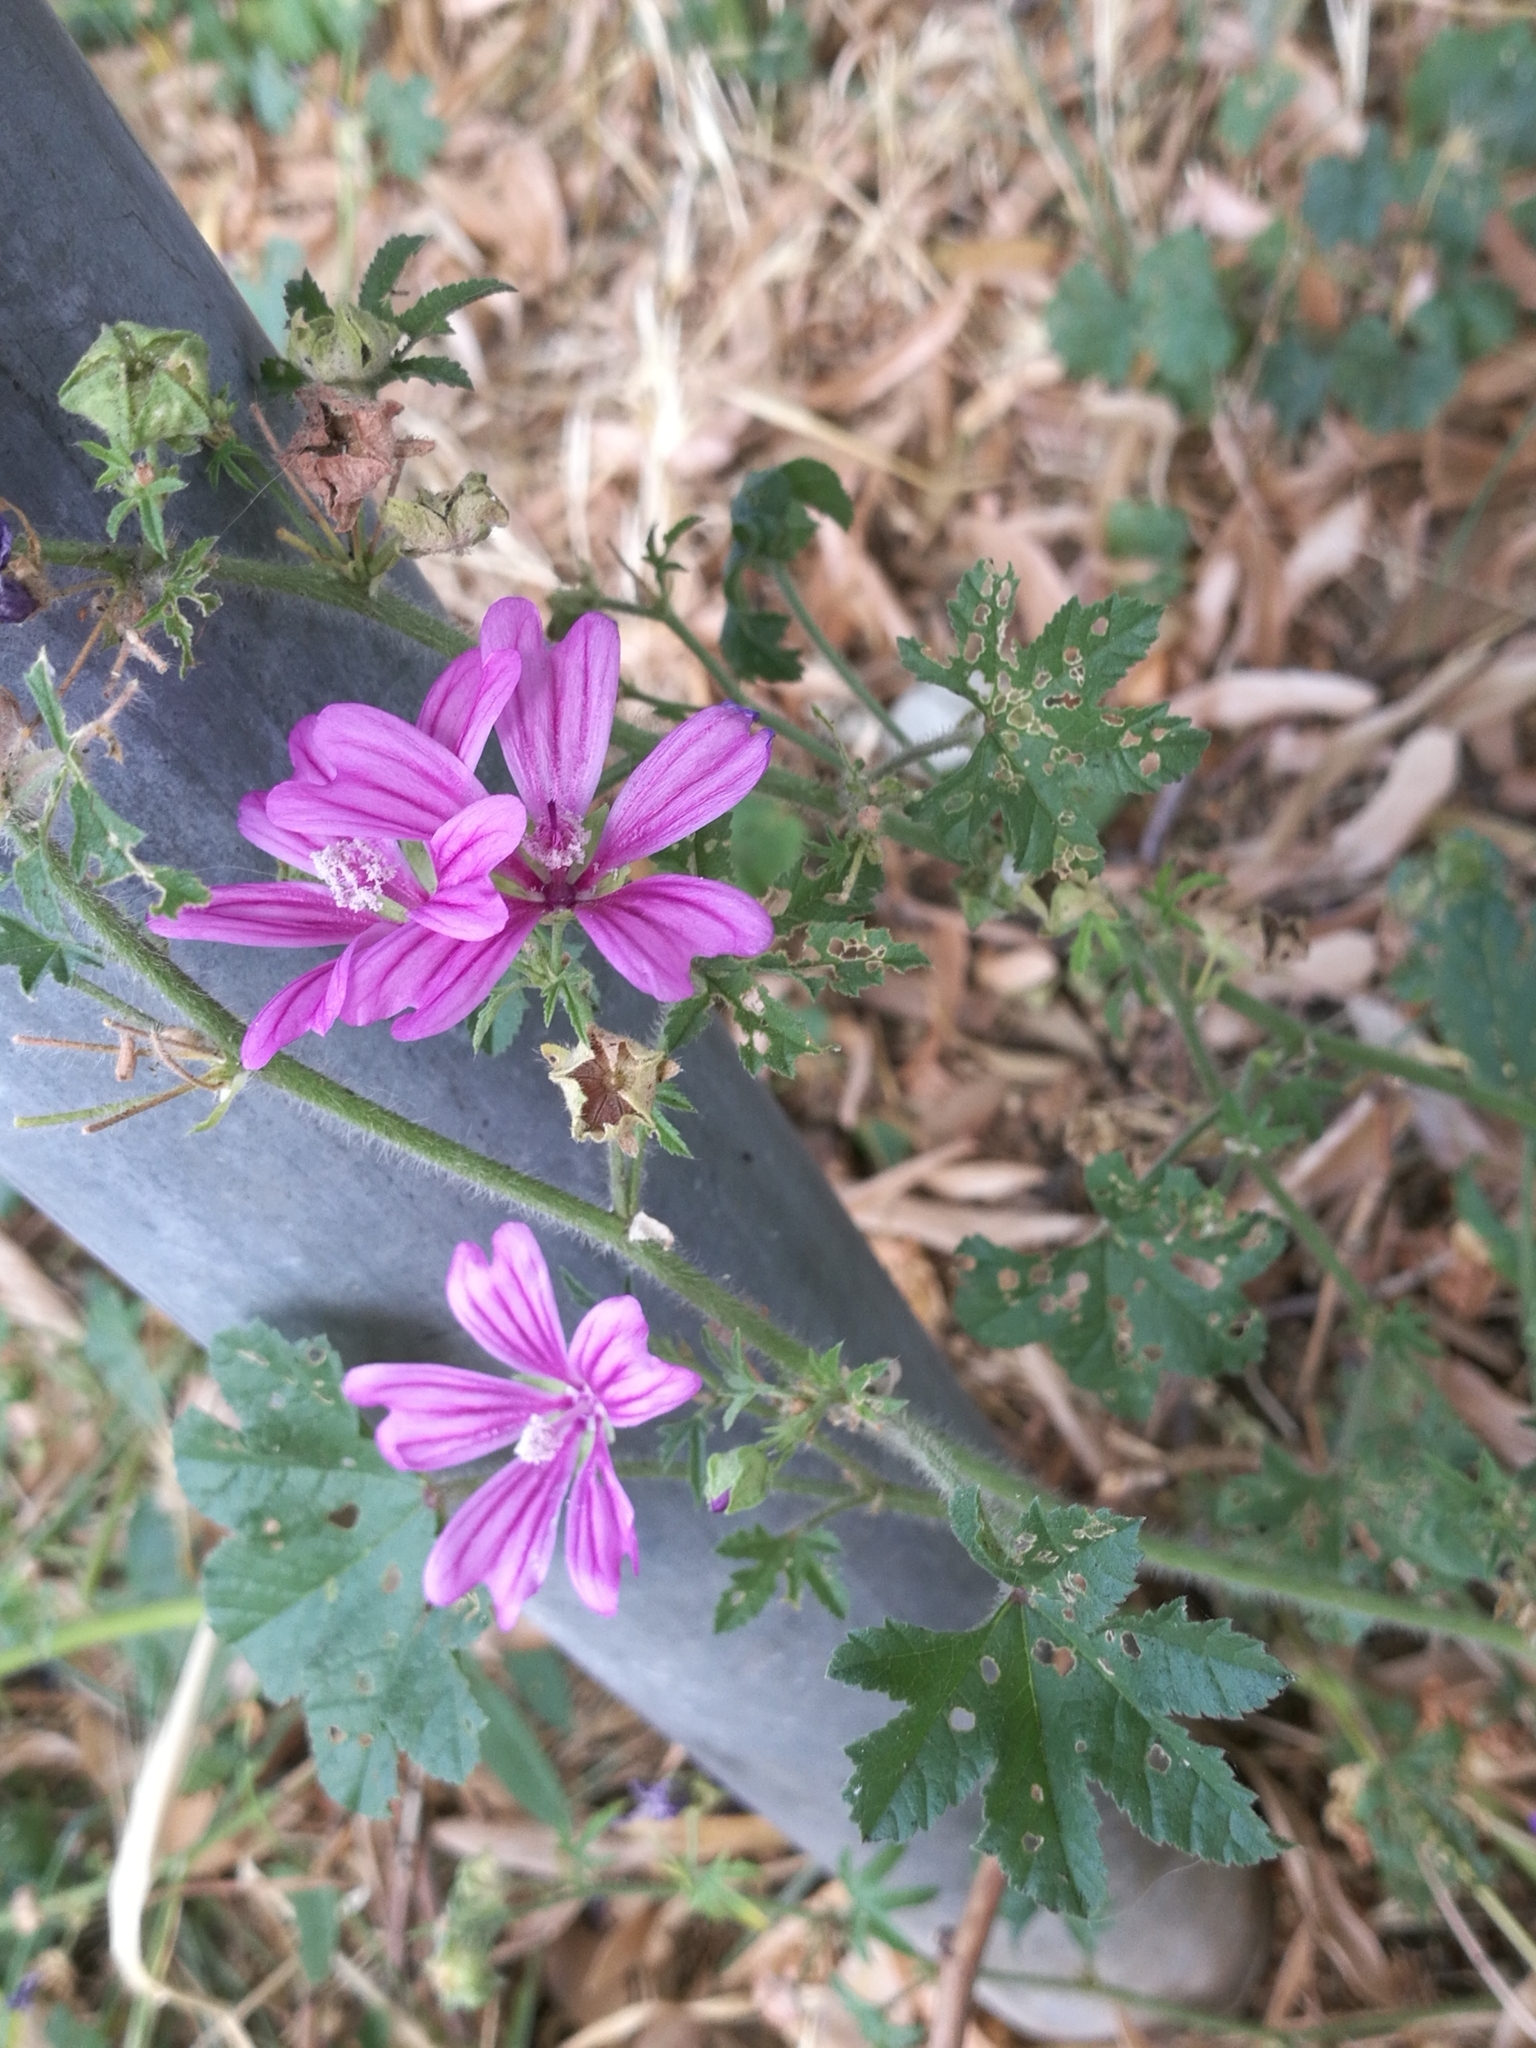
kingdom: Plantae
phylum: Tracheophyta
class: Magnoliopsida
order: Malvales
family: Malvaceae
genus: Malva
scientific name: Malva sylvestris
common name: Common mallow
